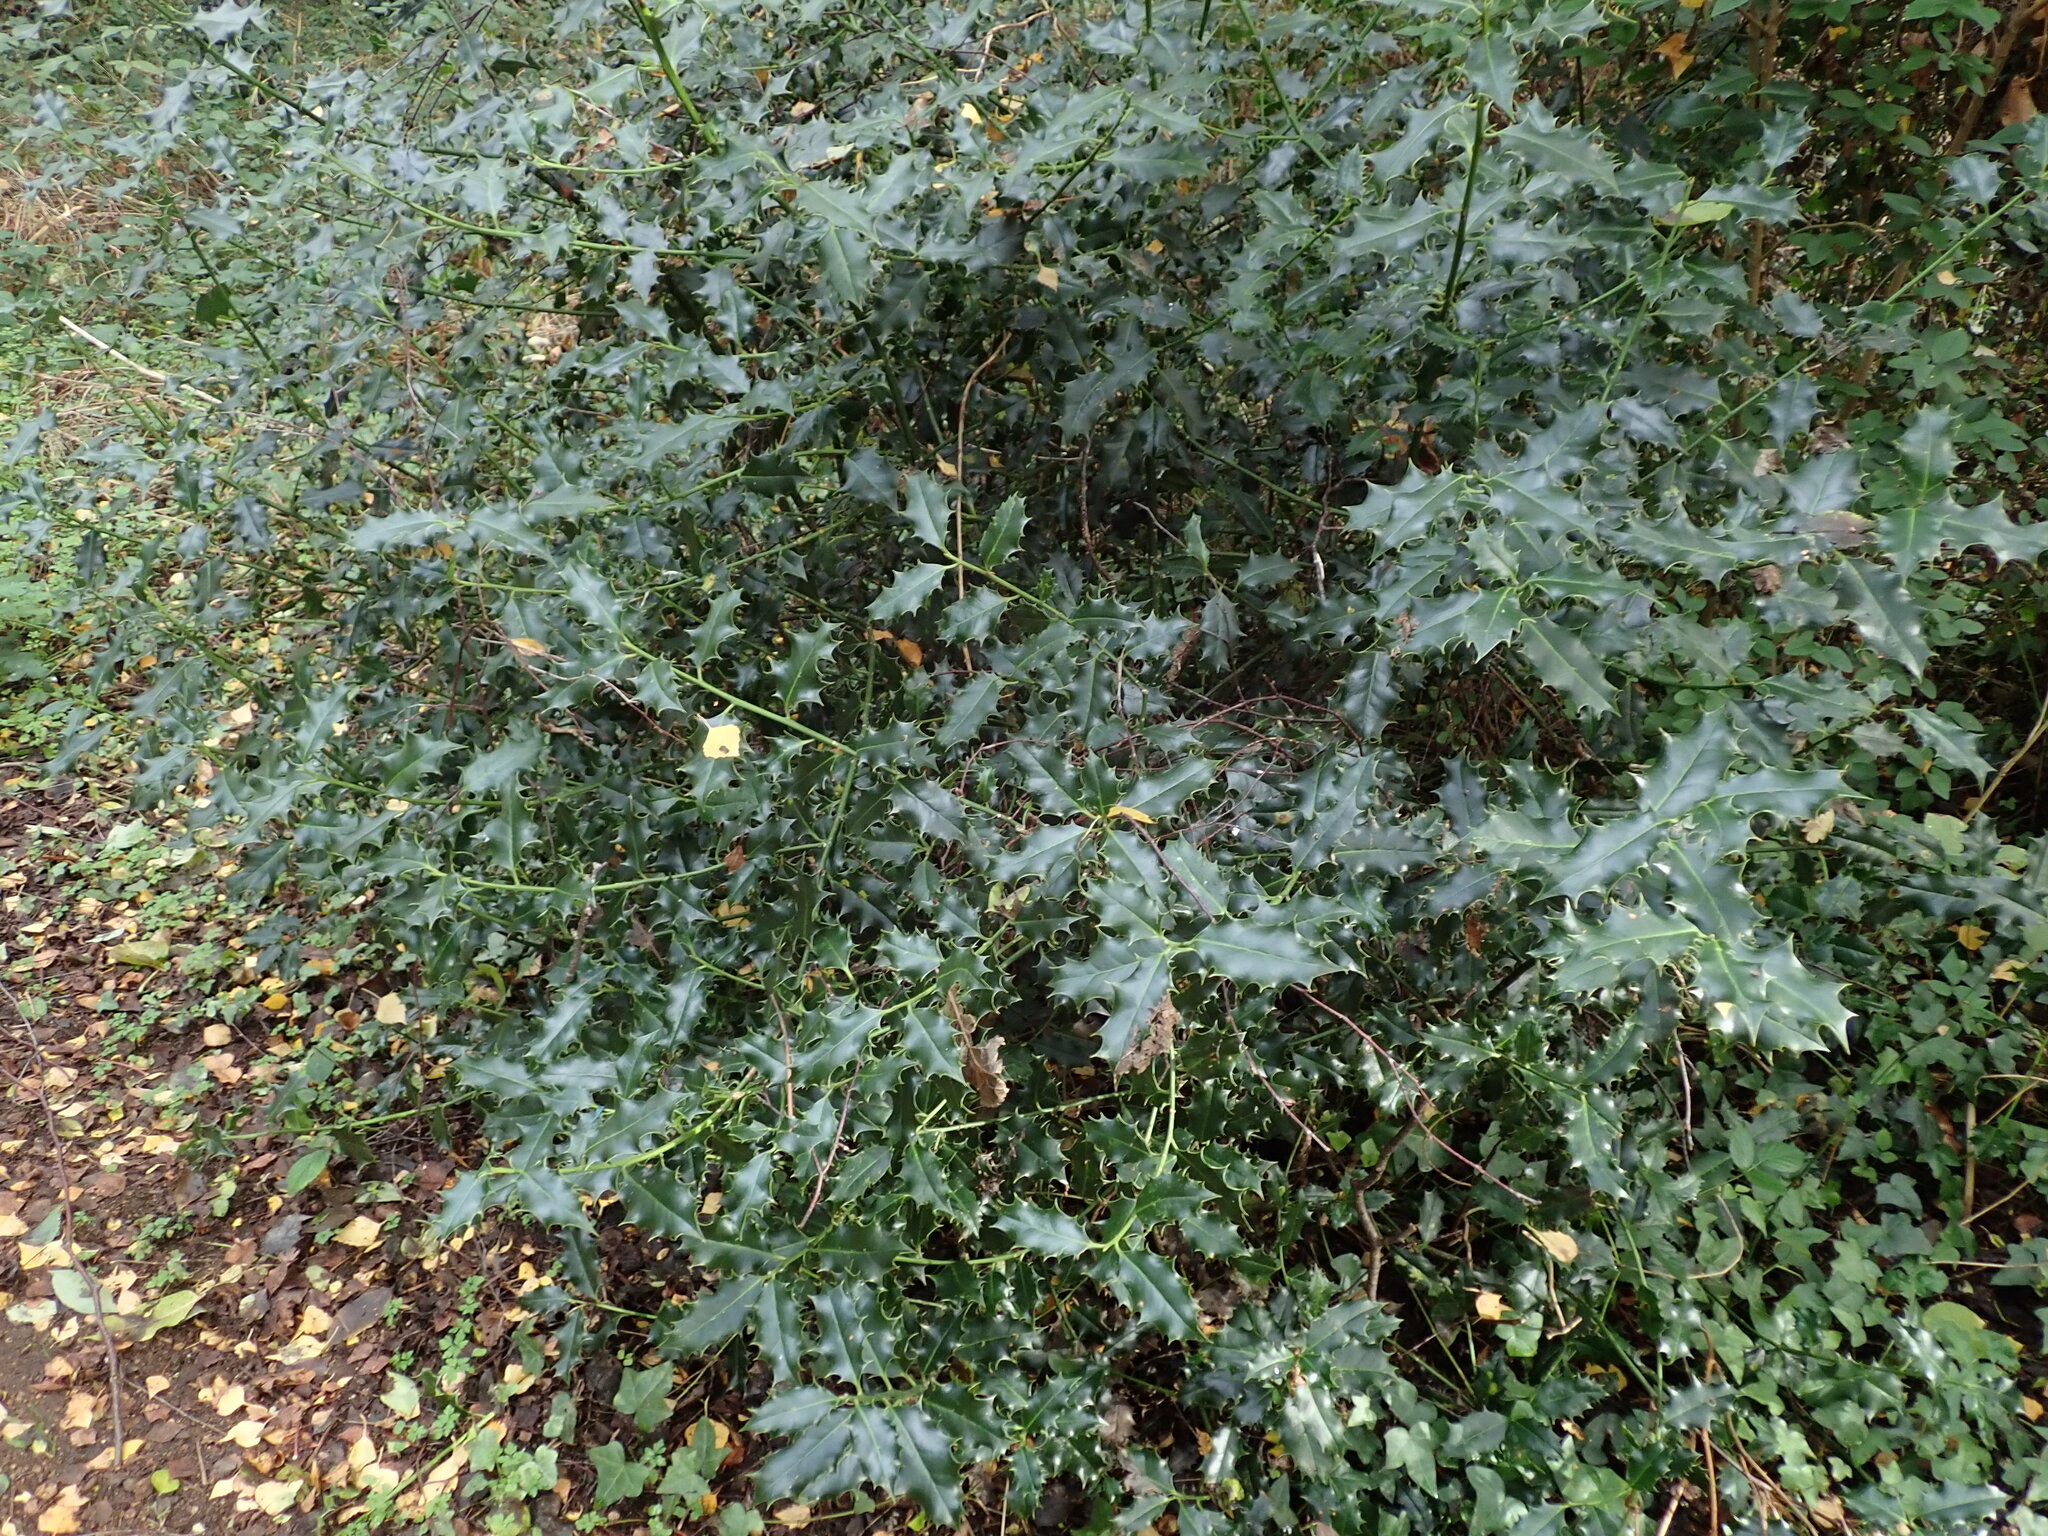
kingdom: Plantae
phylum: Tracheophyta
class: Magnoliopsida
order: Aquifoliales
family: Aquifoliaceae
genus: Ilex
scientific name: Ilex aquifolium
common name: English holly
